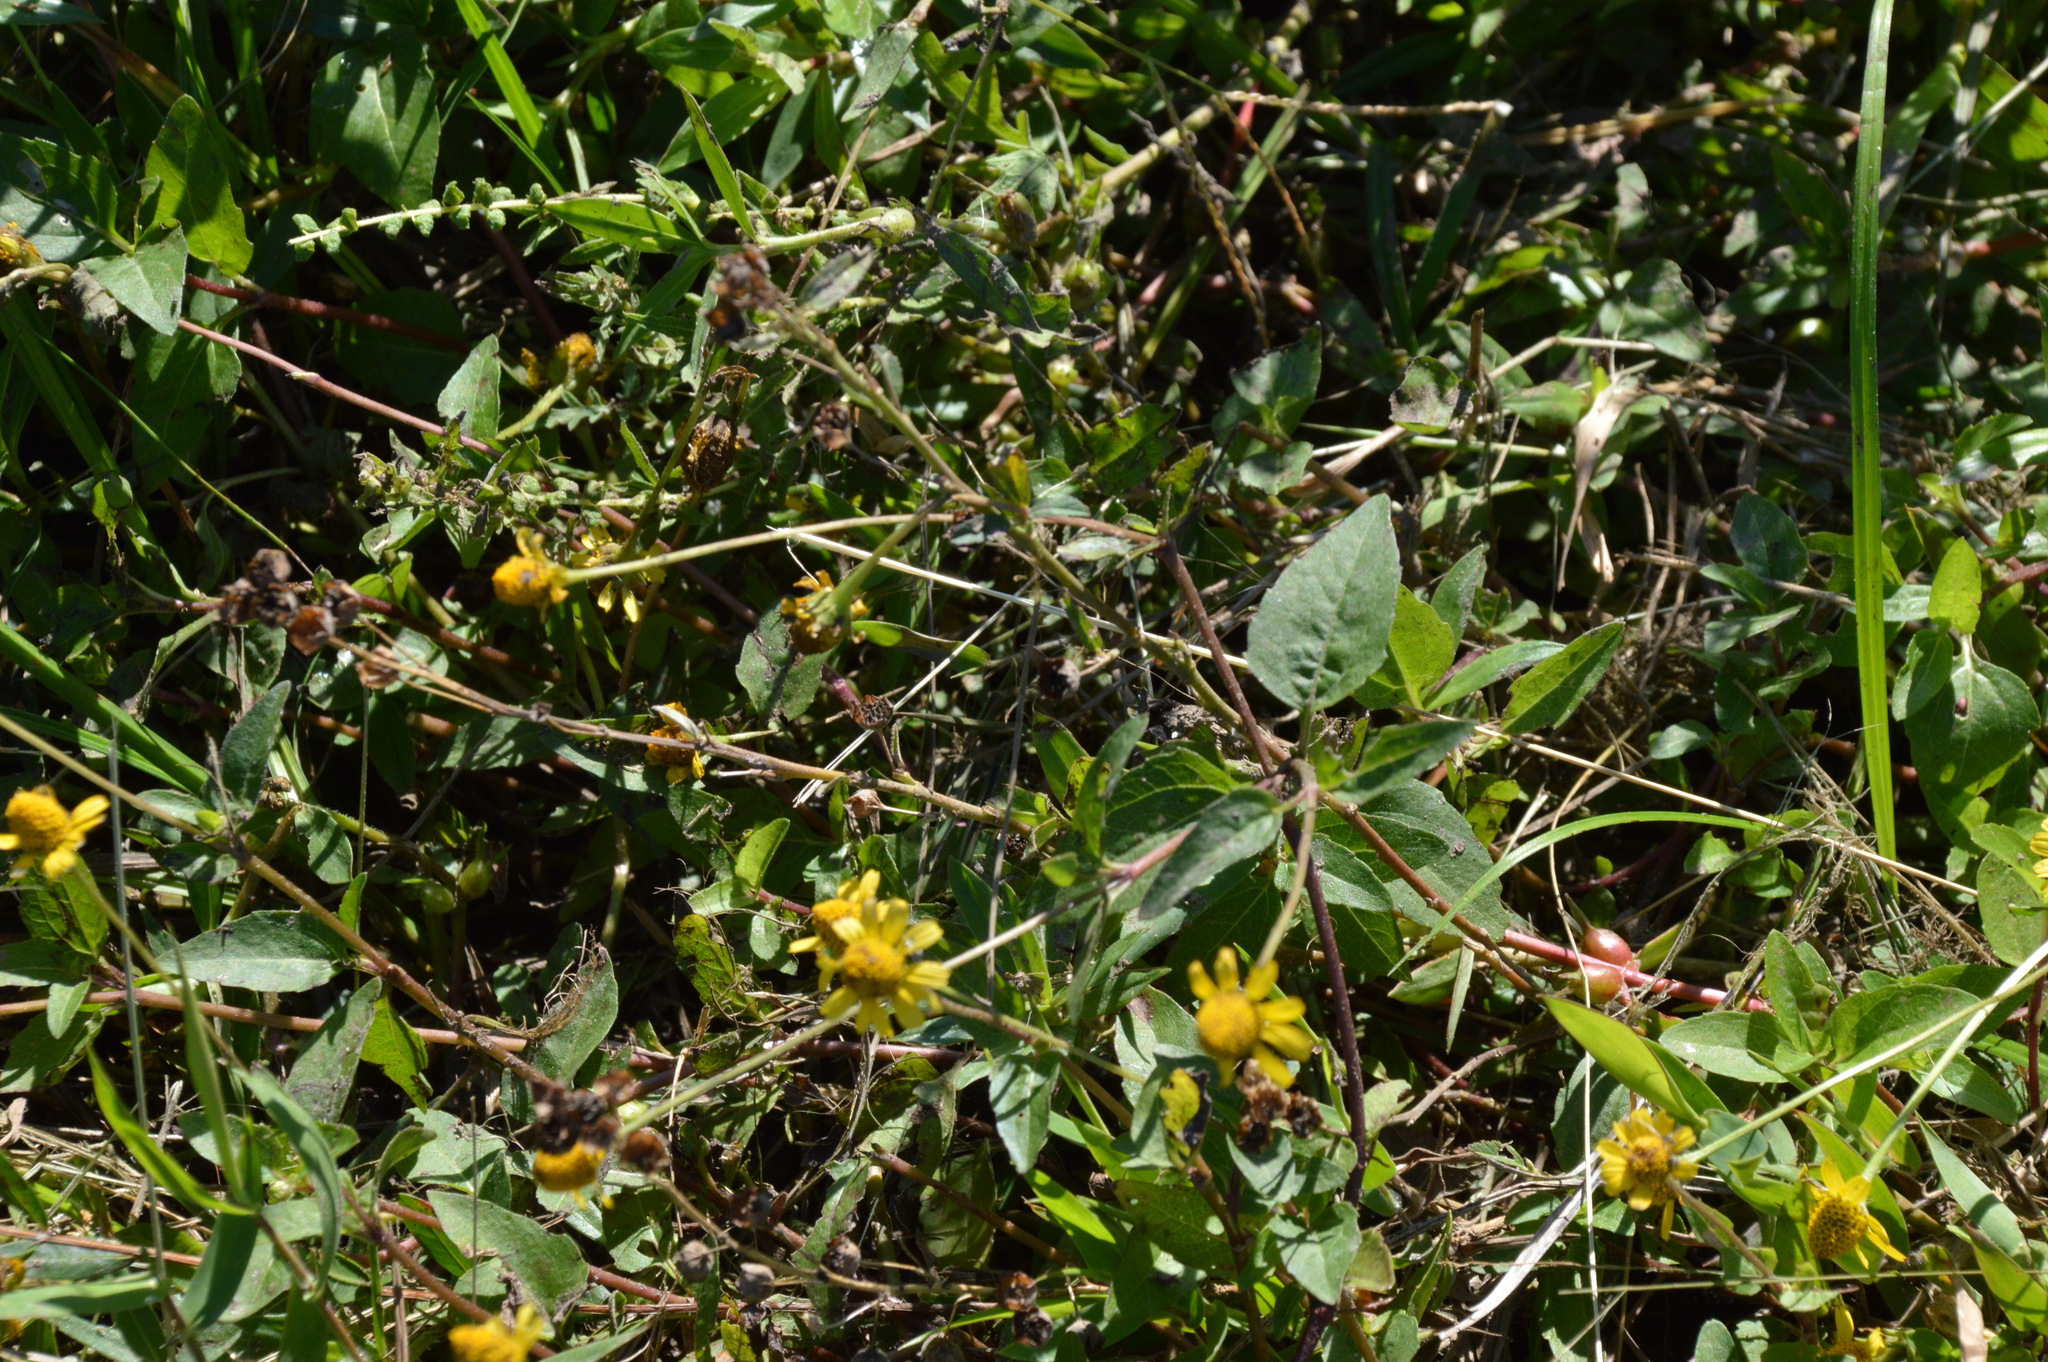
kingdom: Plantae
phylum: Tracheophyta
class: Magnoliopsida
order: Asterales
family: Asteraceae
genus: Acmella
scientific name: Acmella repens
